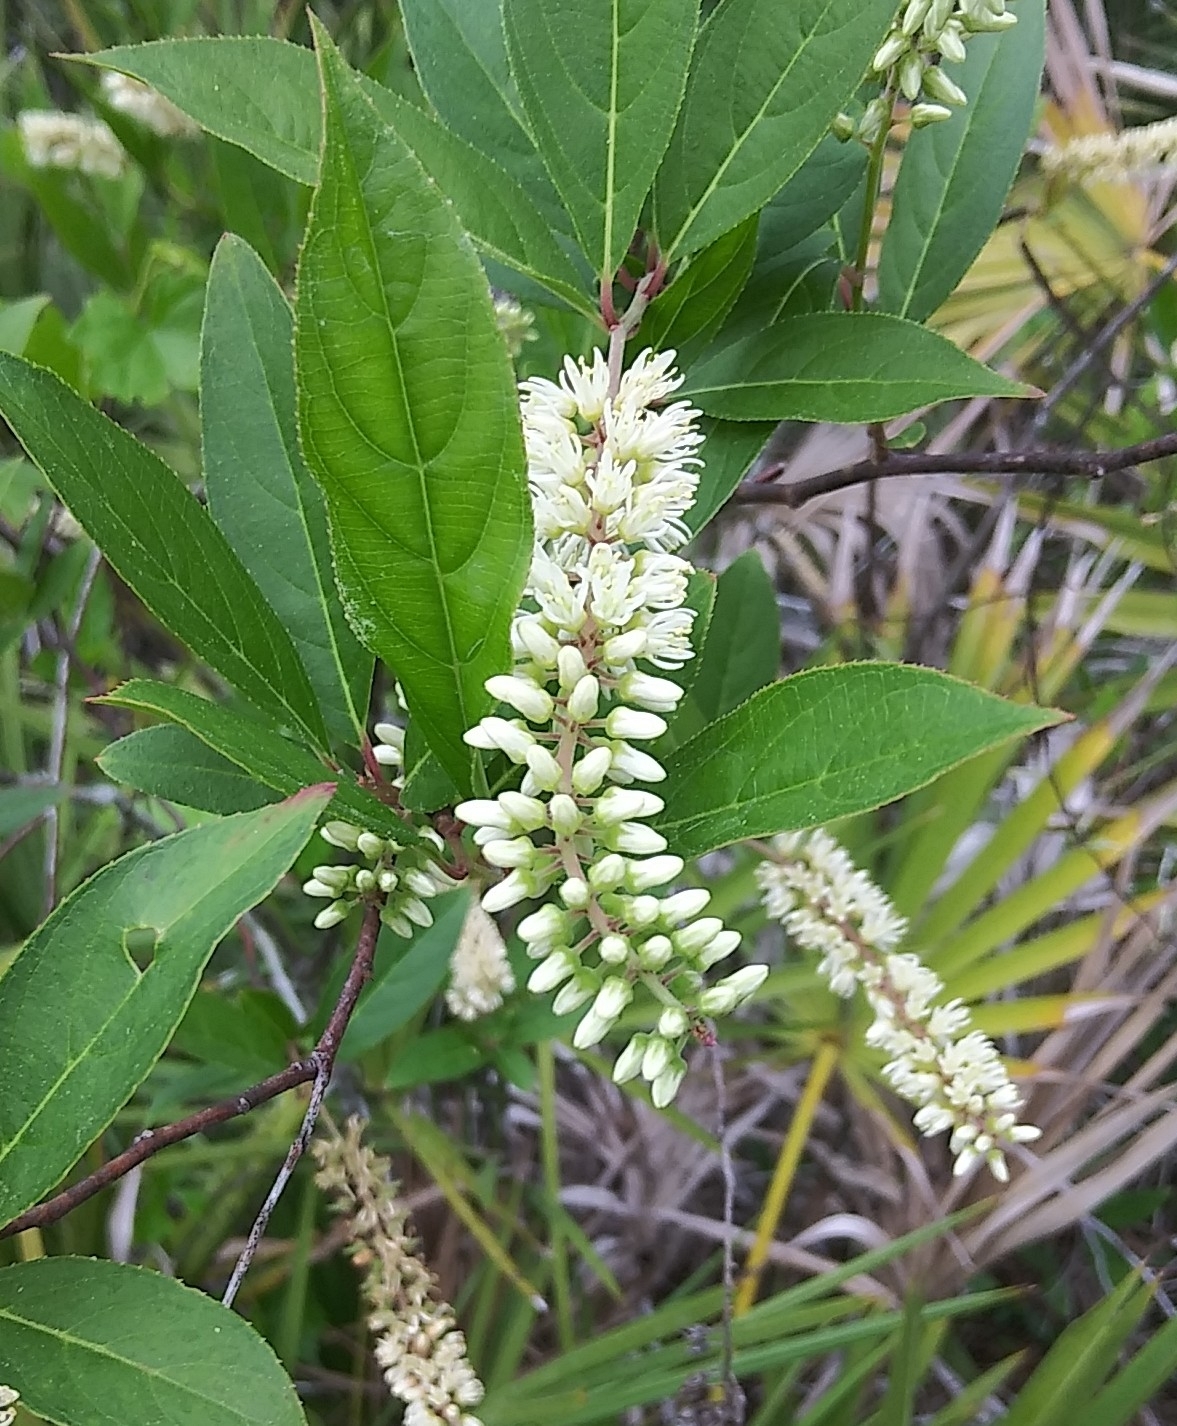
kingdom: Plantae
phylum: Tracheophyta
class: Magnoliopsida
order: Saxifragales
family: Iteaceae
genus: Itea
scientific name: Itea virginica
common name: Sweetspire
